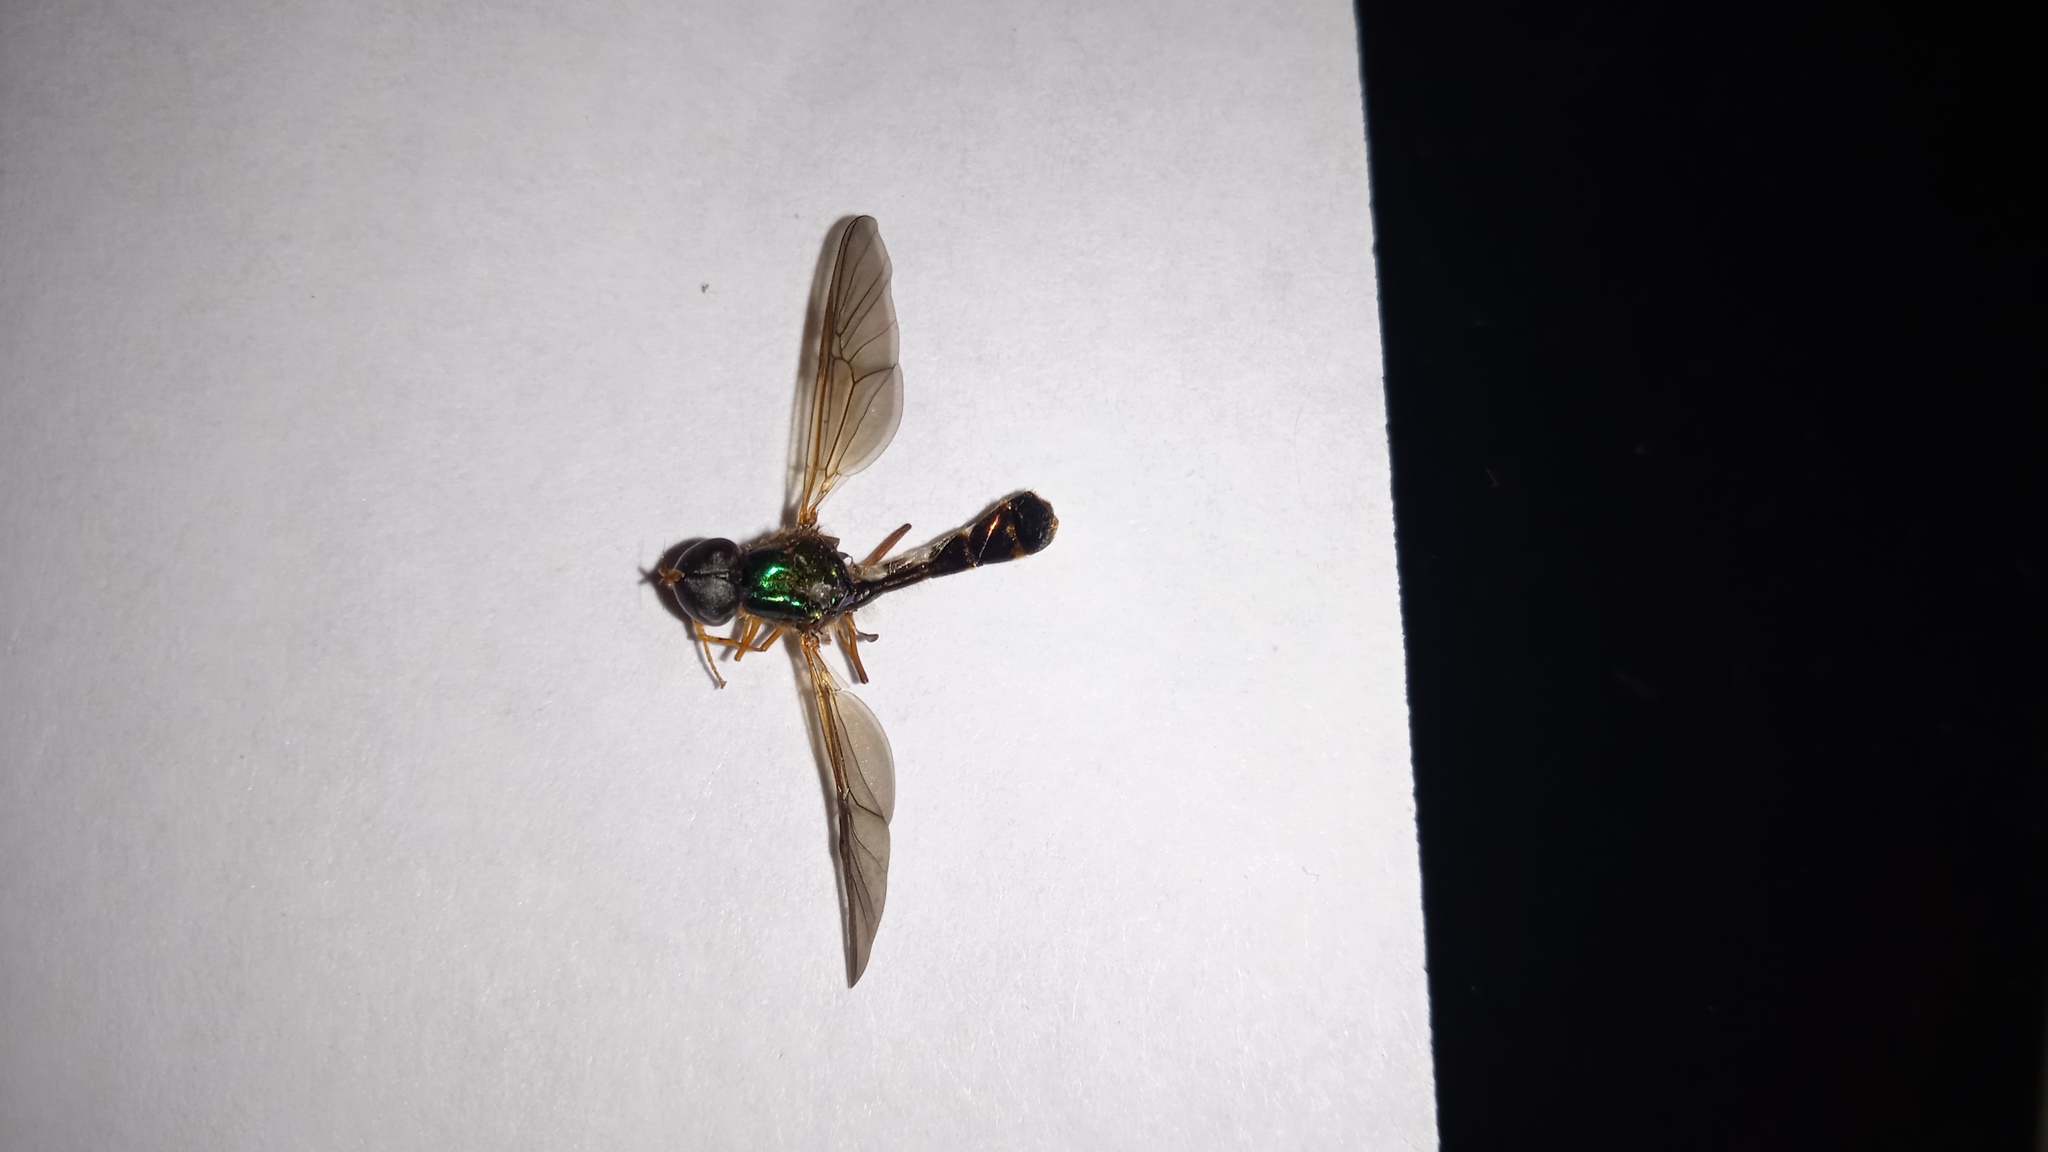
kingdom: Animalia
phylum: Arthropoda
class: Insecta
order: Diptera
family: Stratiomyidae
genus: Sargus
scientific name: Sargus fasciatus
